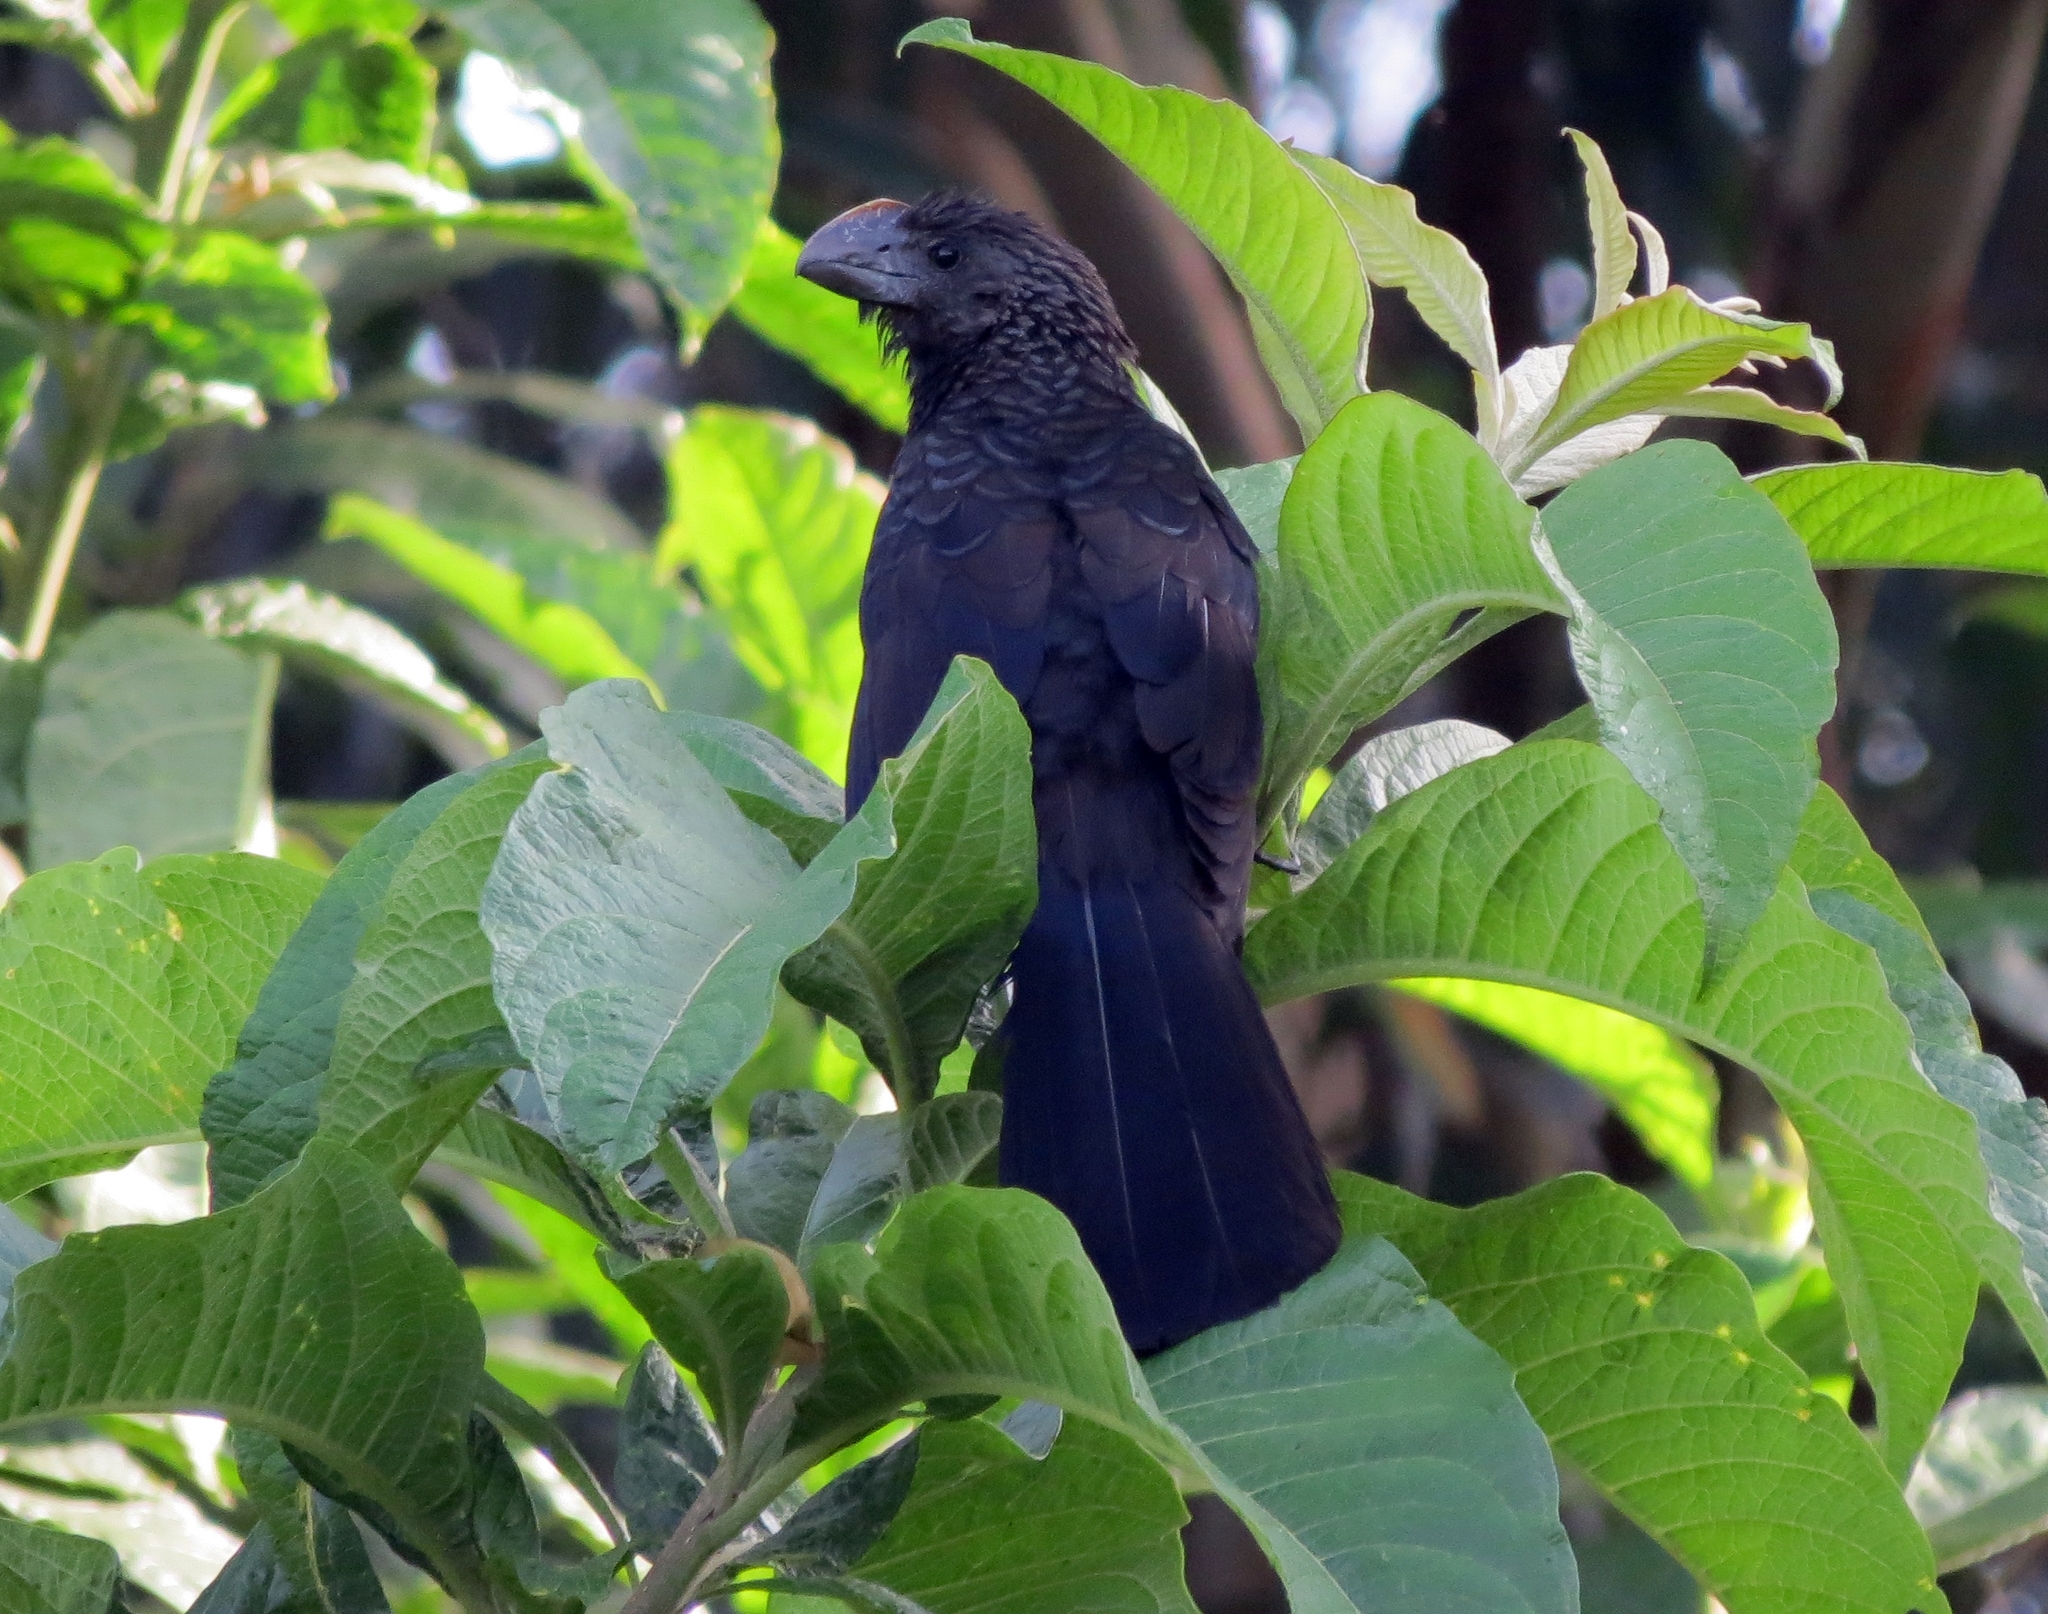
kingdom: Animalia
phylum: Chordata
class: Aves
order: Cuculiformes
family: Cuculidae
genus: Crotophaga
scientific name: Crotophaga ani
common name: Smooth-billed ani
